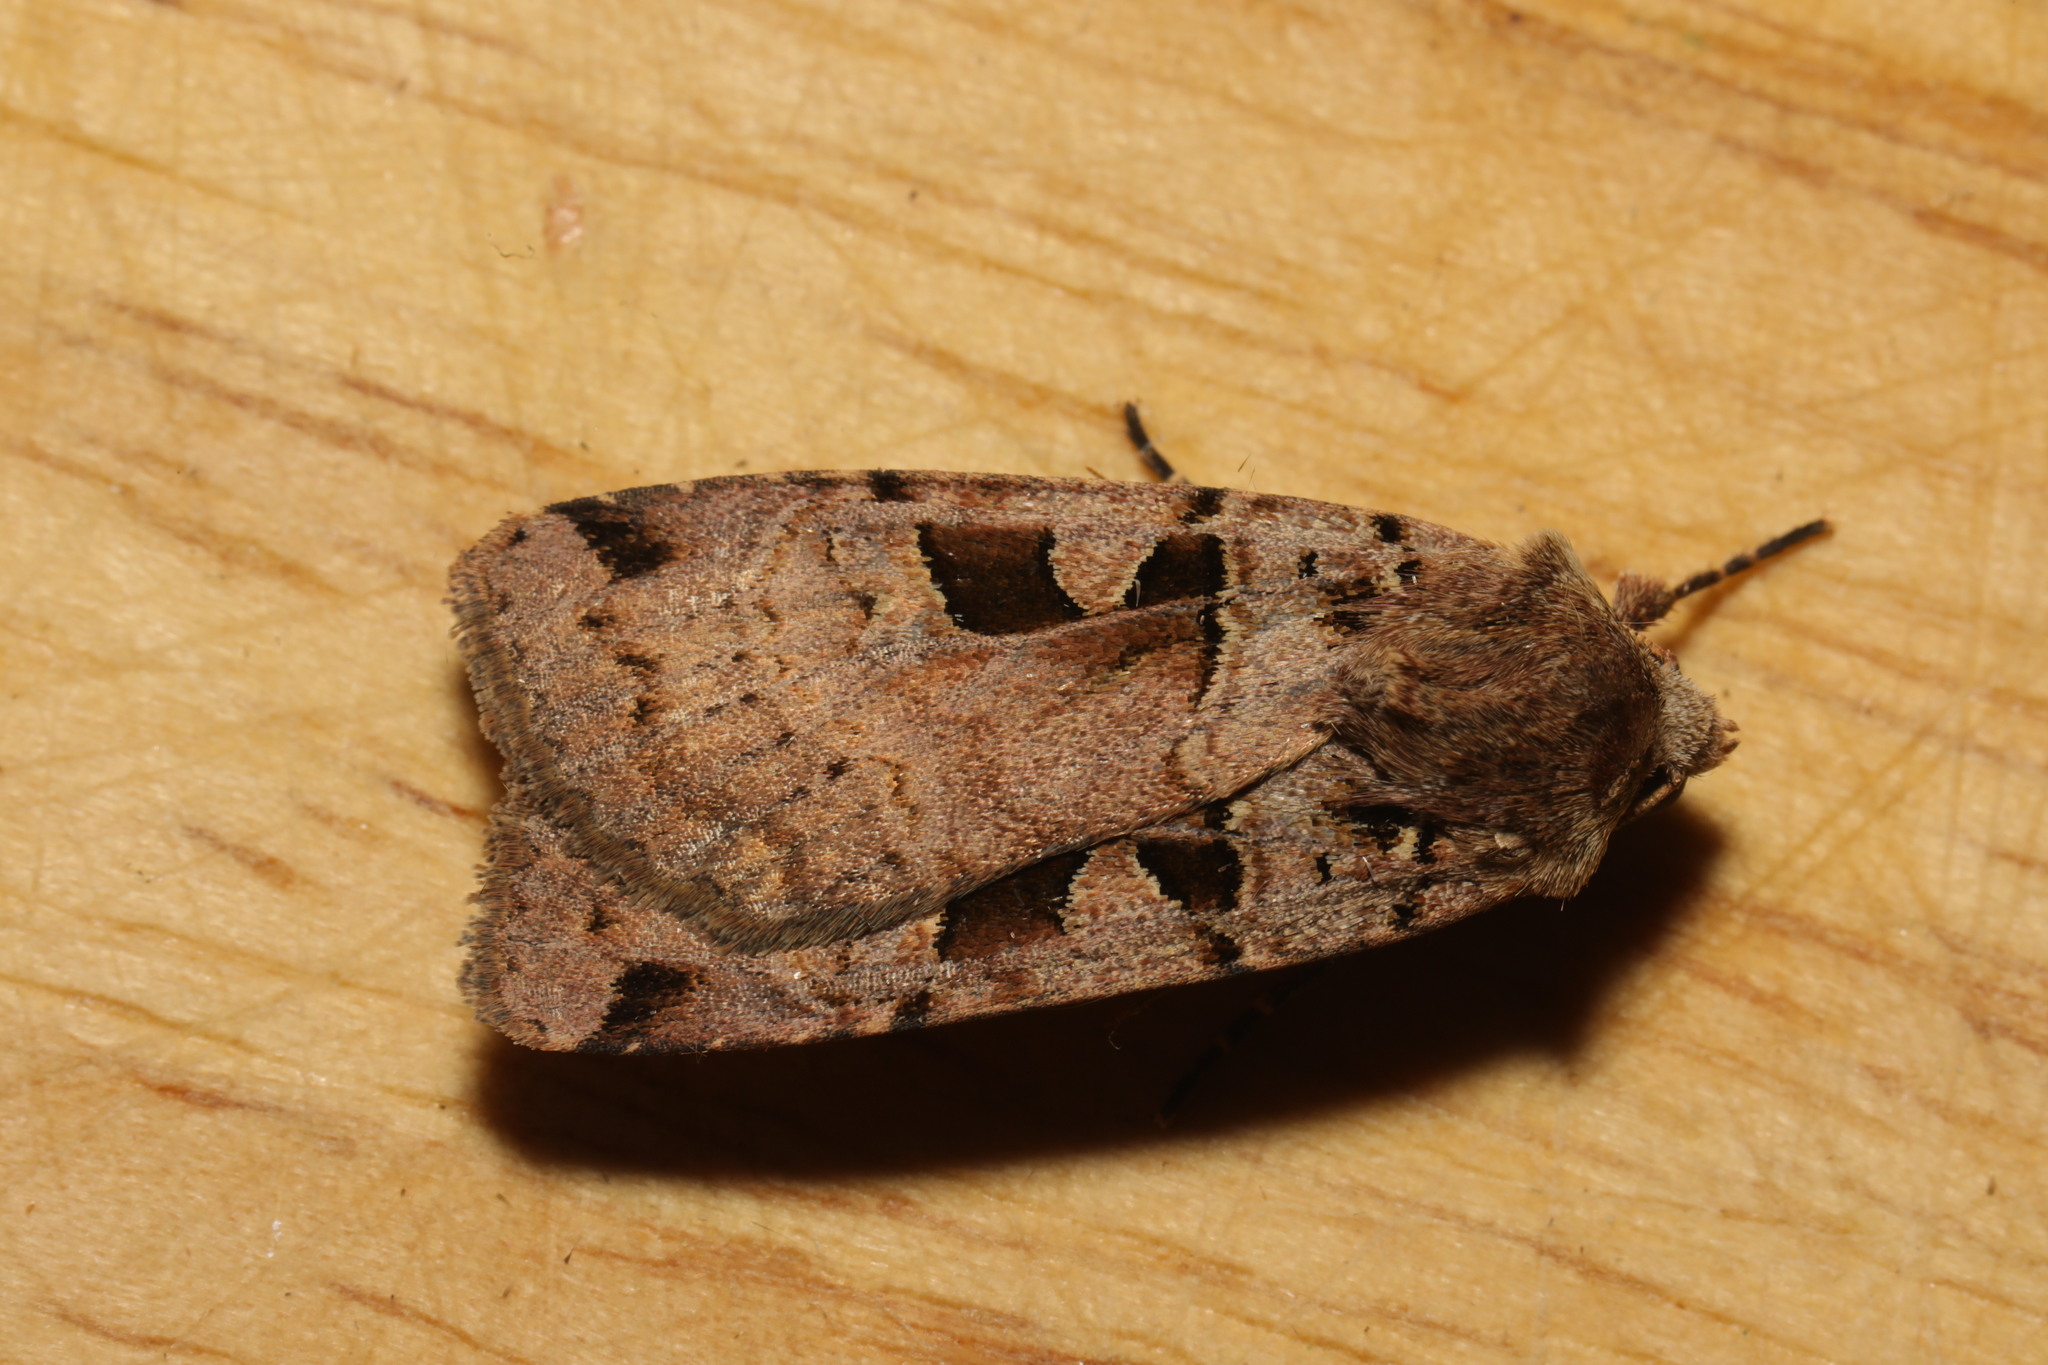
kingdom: Animalia
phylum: Arthropoda
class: Insecta
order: Lepidoptera
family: Noctuidae
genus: Xestia
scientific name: Xestia triangulum
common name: Double square-spot
